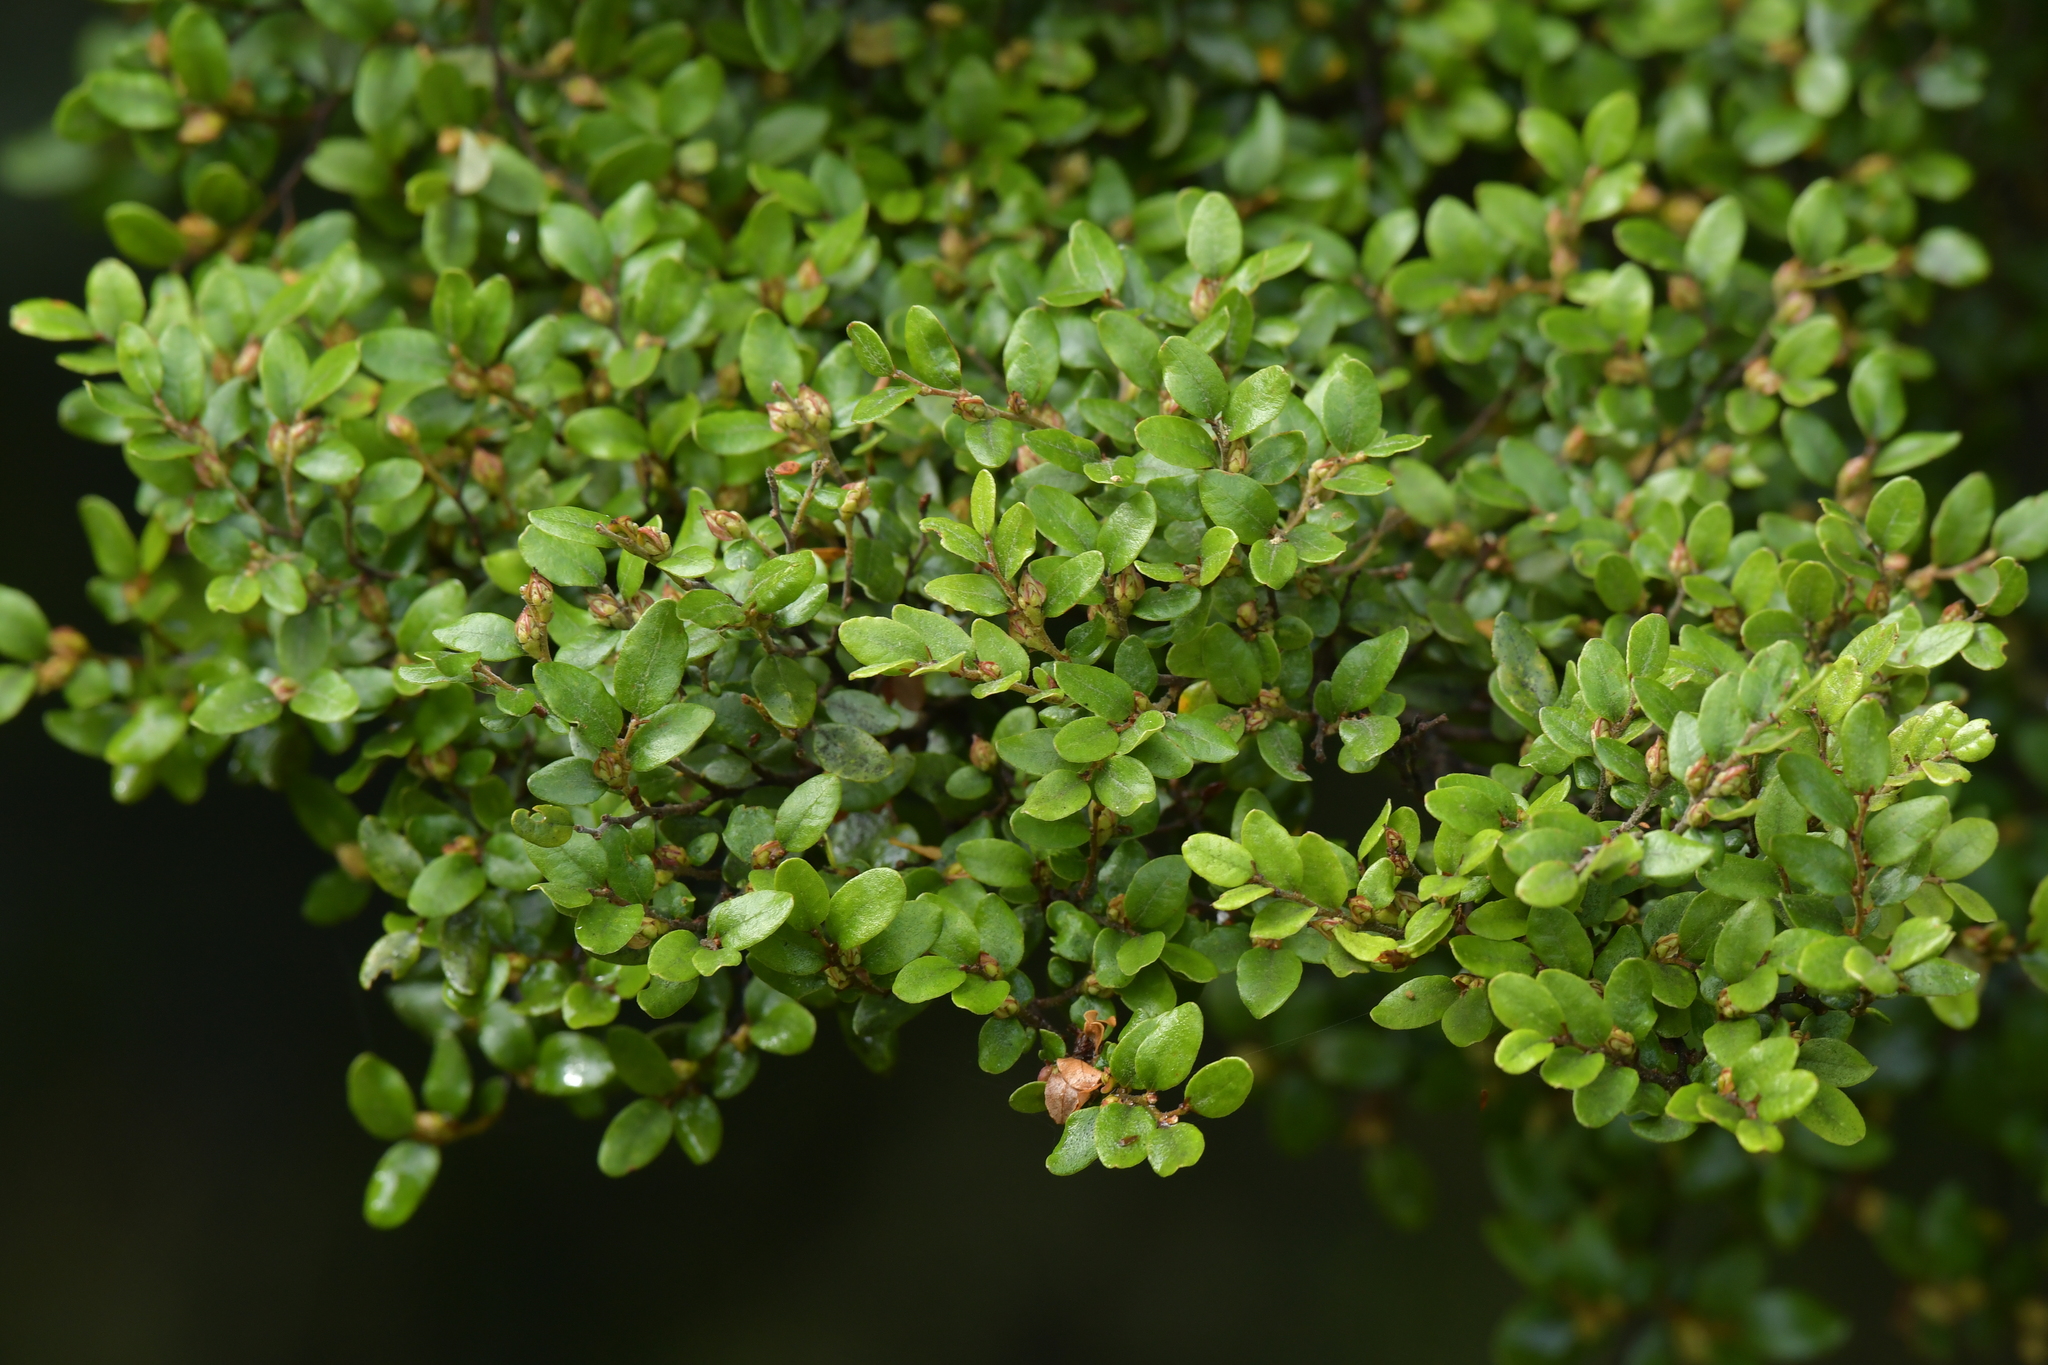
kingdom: Plantae
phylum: Tracheophyta
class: Magnoliopsida
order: Fagales
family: Nothofagaceae
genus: Nothofagus
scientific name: Nothofagus cliffortioides
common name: Mountain beech
